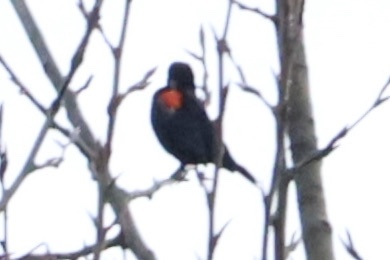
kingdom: Animalia
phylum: Chordata
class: Aves
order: Passeriformes
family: Icteridae
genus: Agelaius
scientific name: Agelaius phoeniceus
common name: Red-winged blackbird
